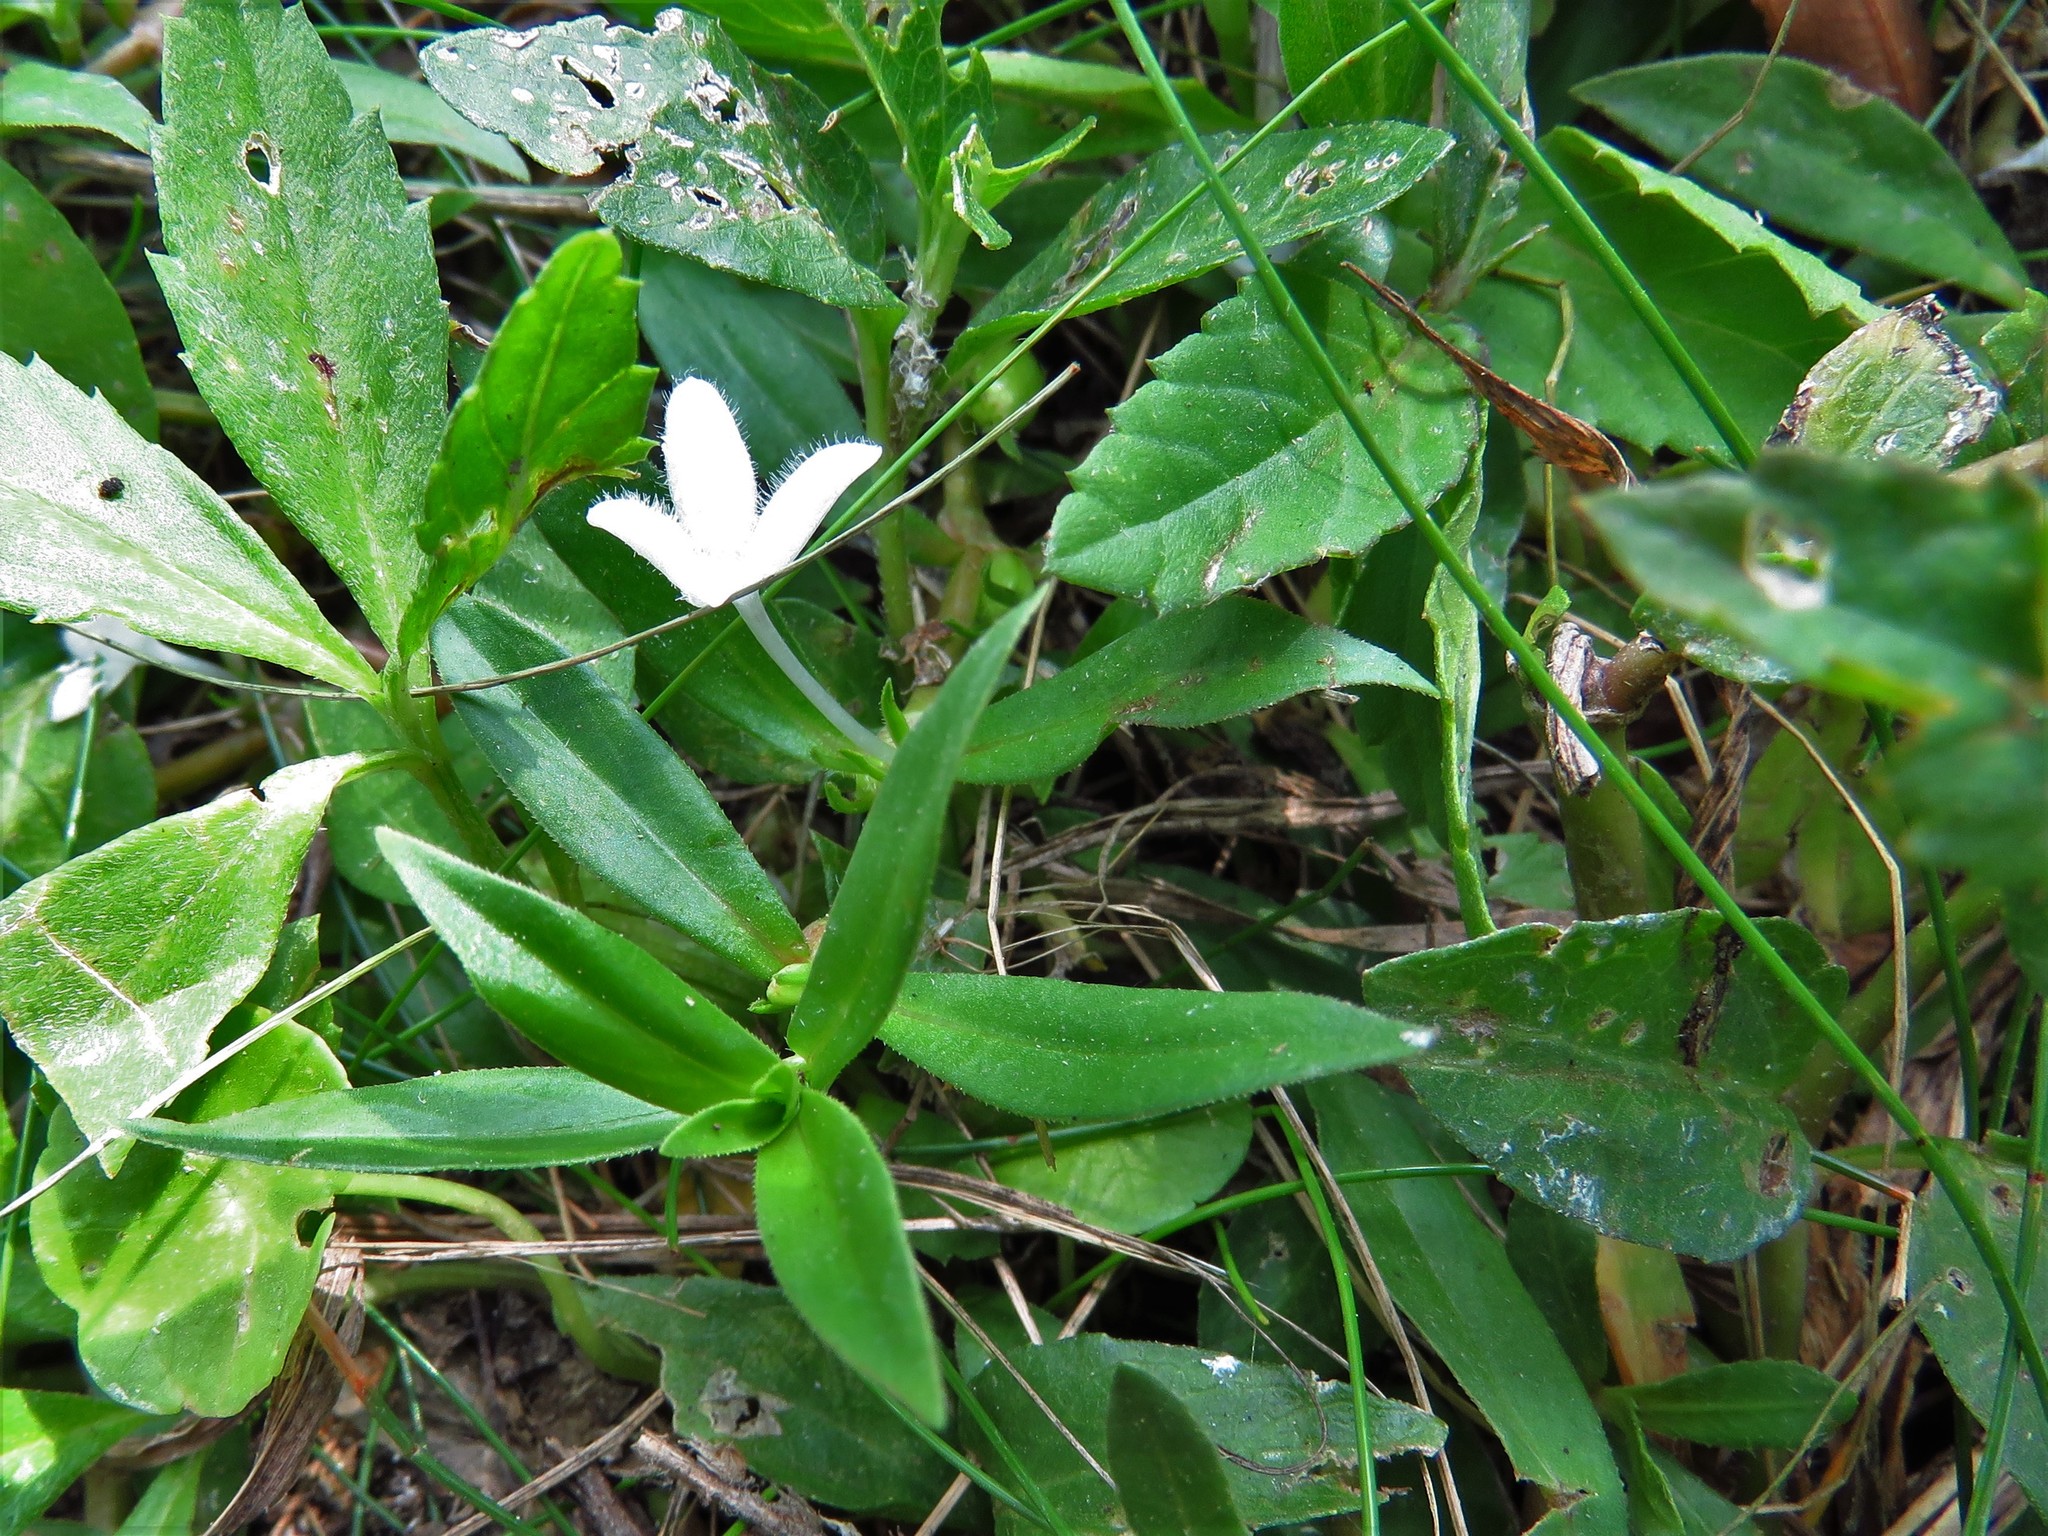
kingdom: Plantae
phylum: Tracheophyta
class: Magnoliopsida
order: Gentianales
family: Rubiaceae
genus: Diodia
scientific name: Diodia virginiana
